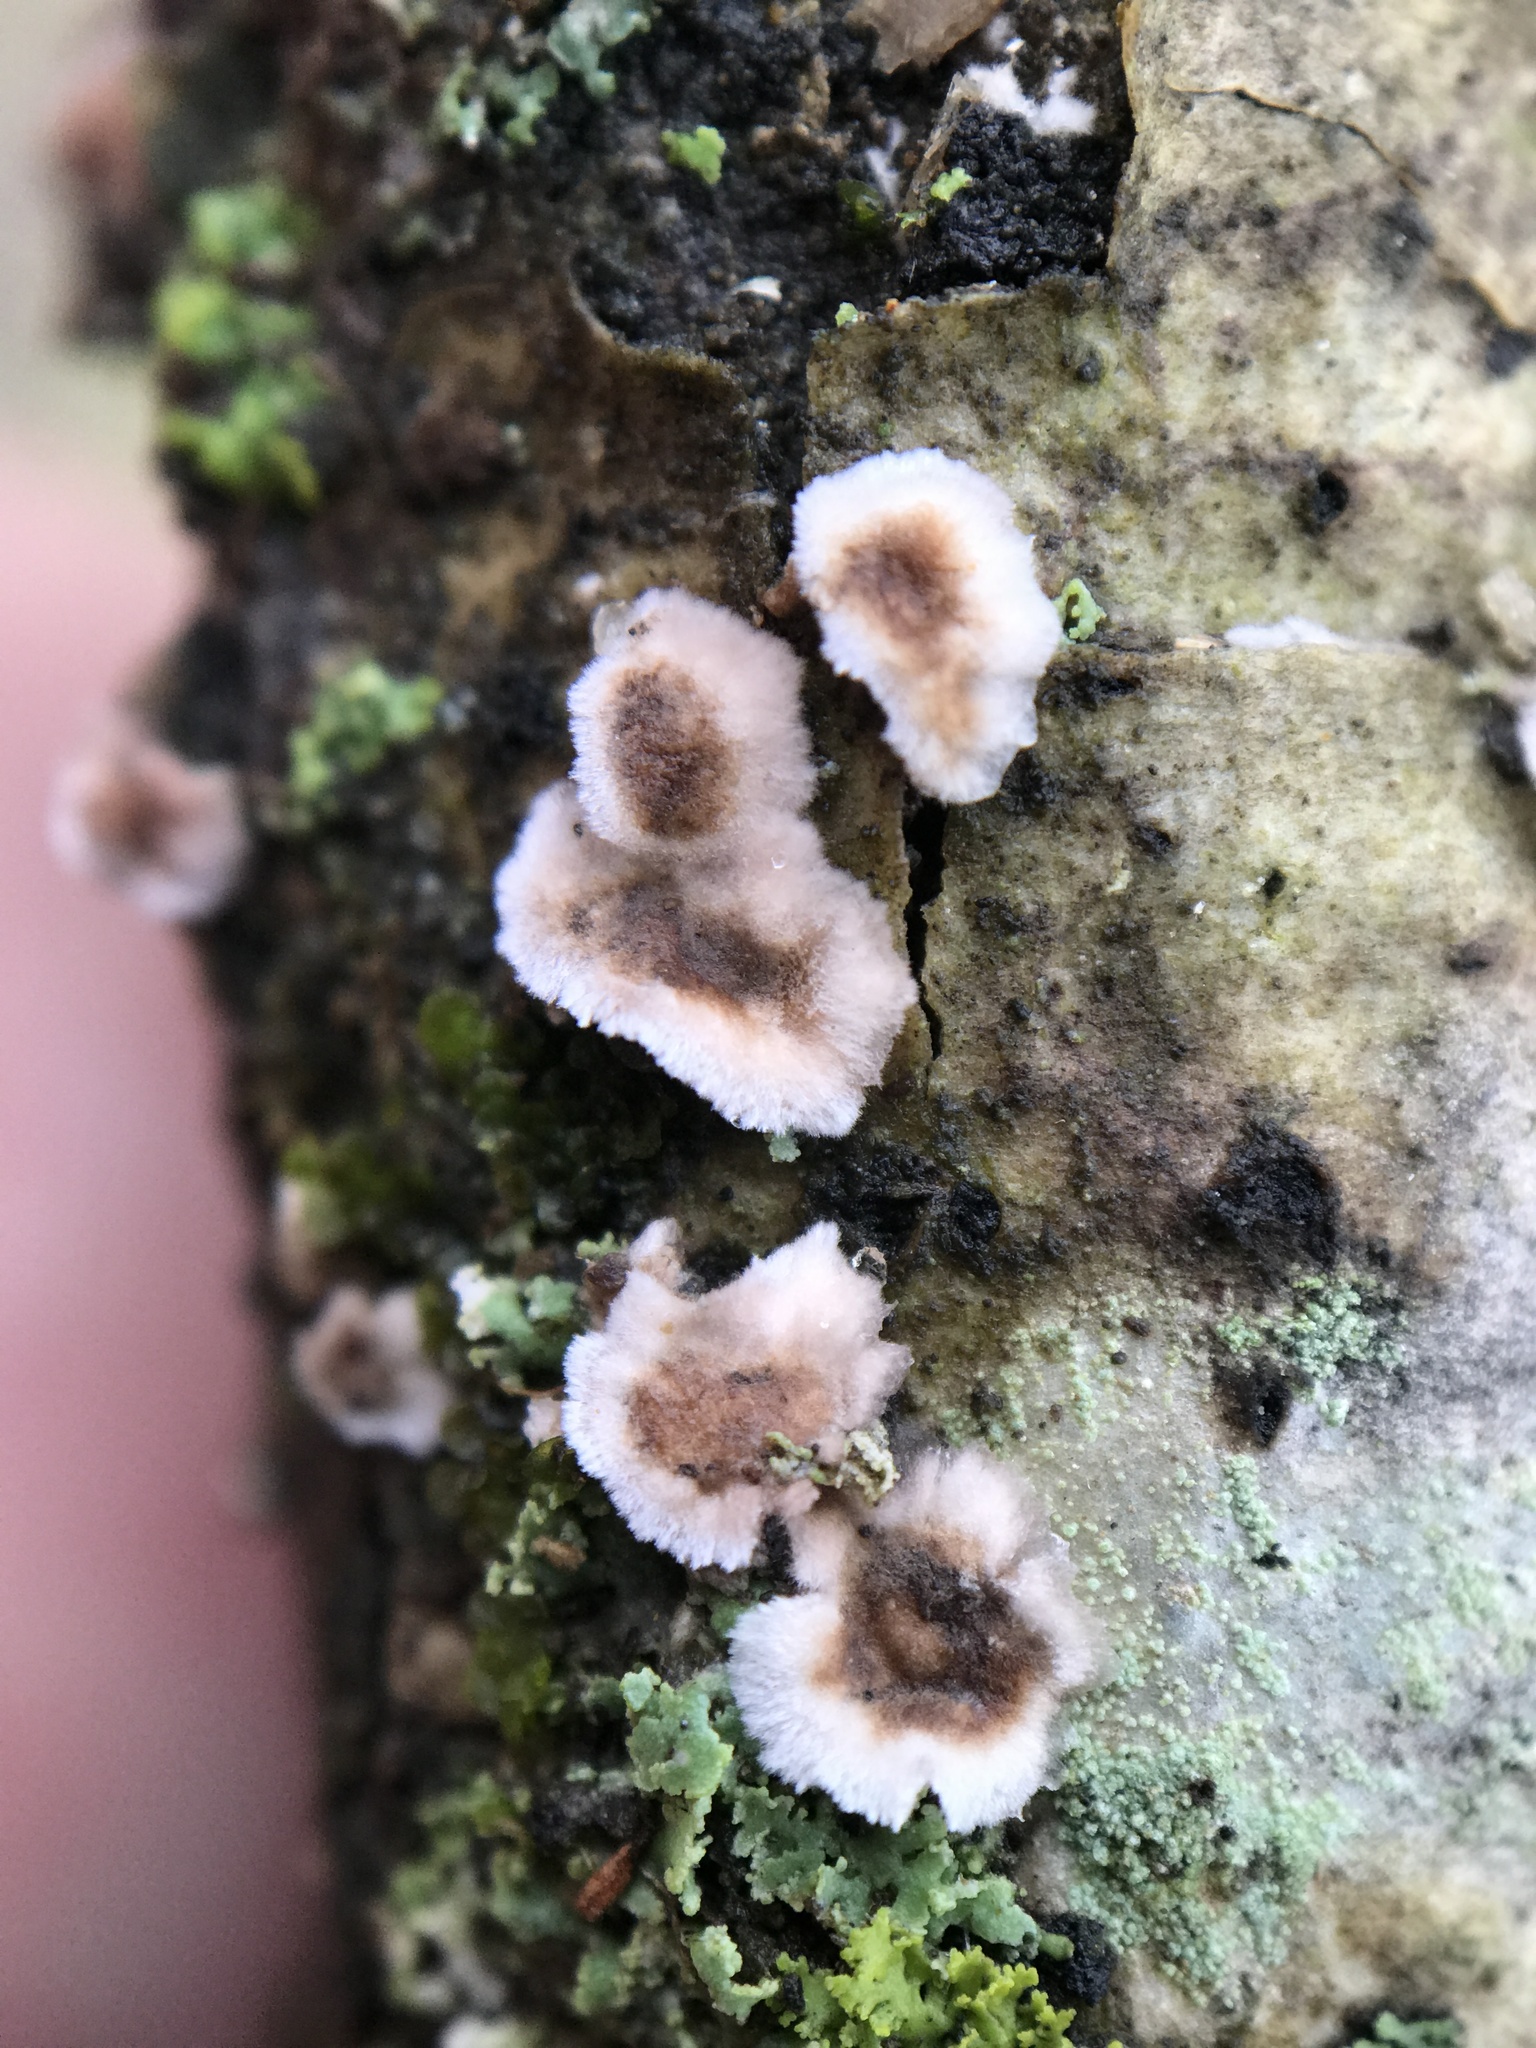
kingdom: Fungi
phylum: Basidiomycota
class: Agaricomycetes
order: Russulales
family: Peniophoraceae
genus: Peniophora
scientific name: Peniophora albobadia
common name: Giraffe spots
